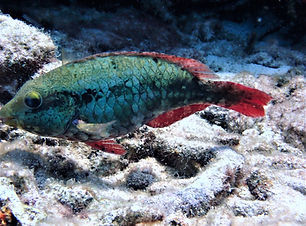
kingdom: Animalia
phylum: Chordata
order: Perciformes
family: Scaridae
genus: Sparisoma
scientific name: Sparisoma aurofrenatum
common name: Redband parrotfish
